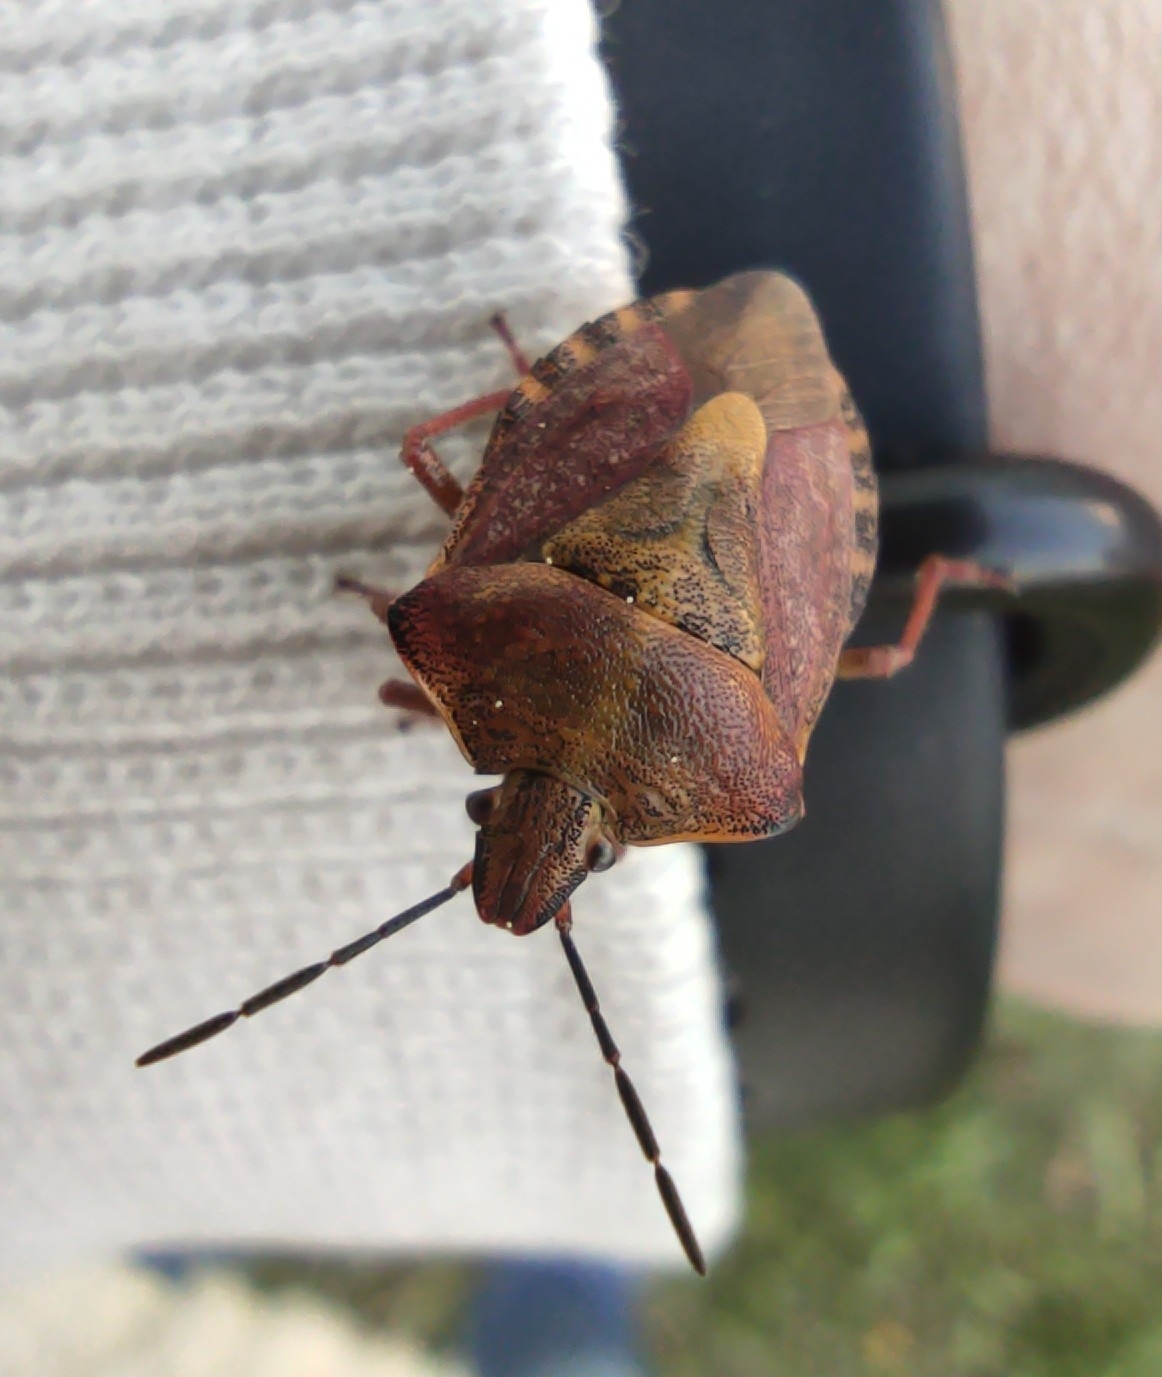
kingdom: Animalia
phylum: Arthropoda
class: Insecta
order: Hemiptera
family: Pentatomidae
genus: Carpocoris
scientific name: Carpocoris purpureipennis
